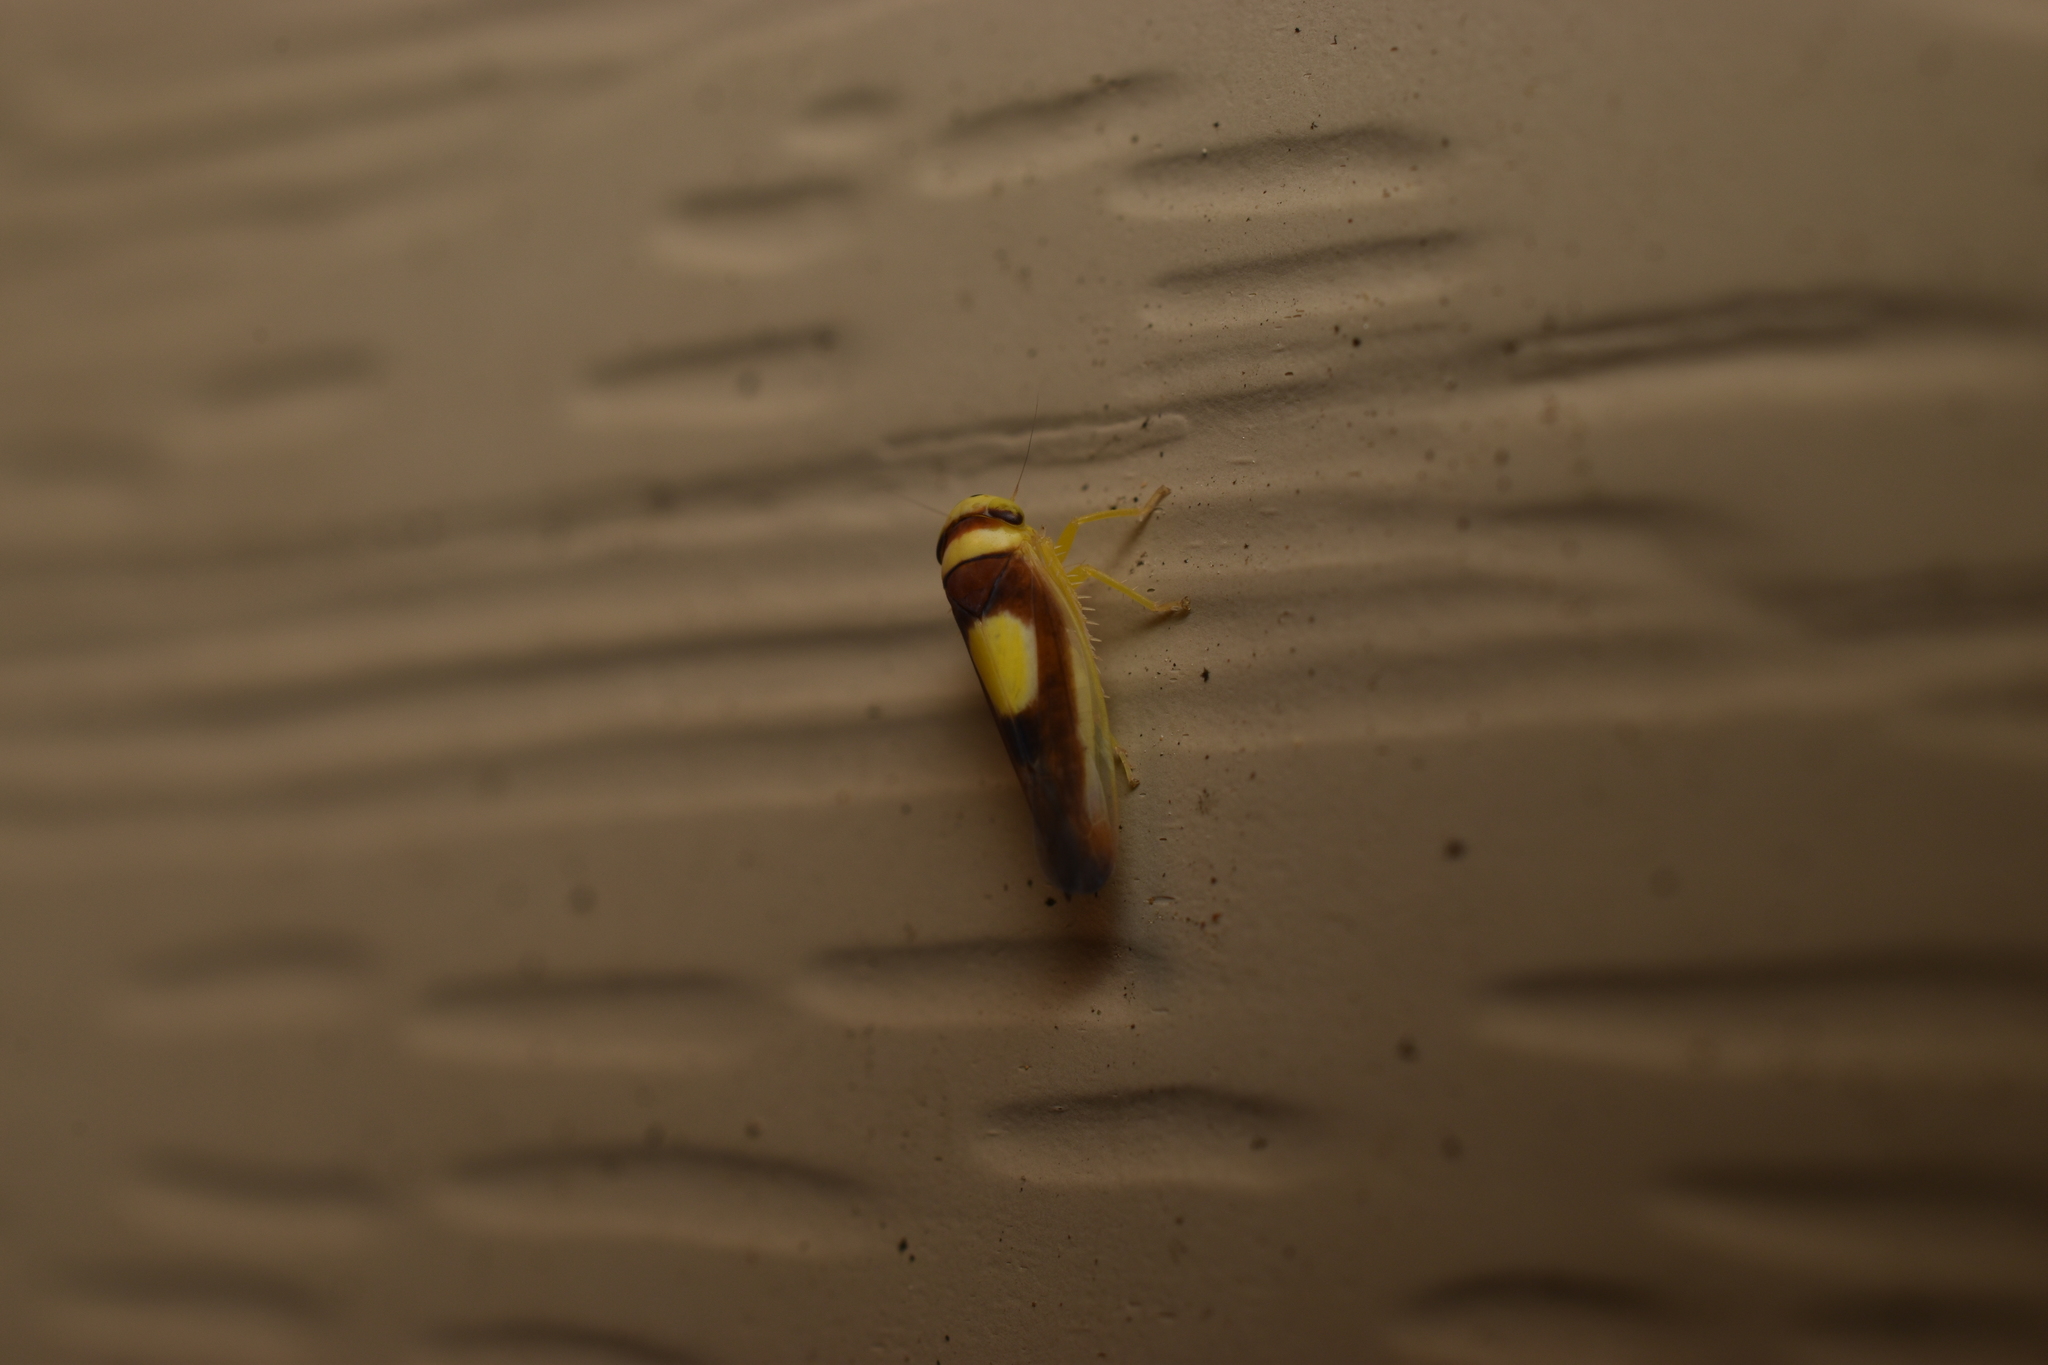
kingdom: Animalia
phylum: Arthropoda
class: Insecta
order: Hemiptera
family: Cicadellidae
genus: Colladonus
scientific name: Colladonus clitellarius
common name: The saddleback leafhopper
